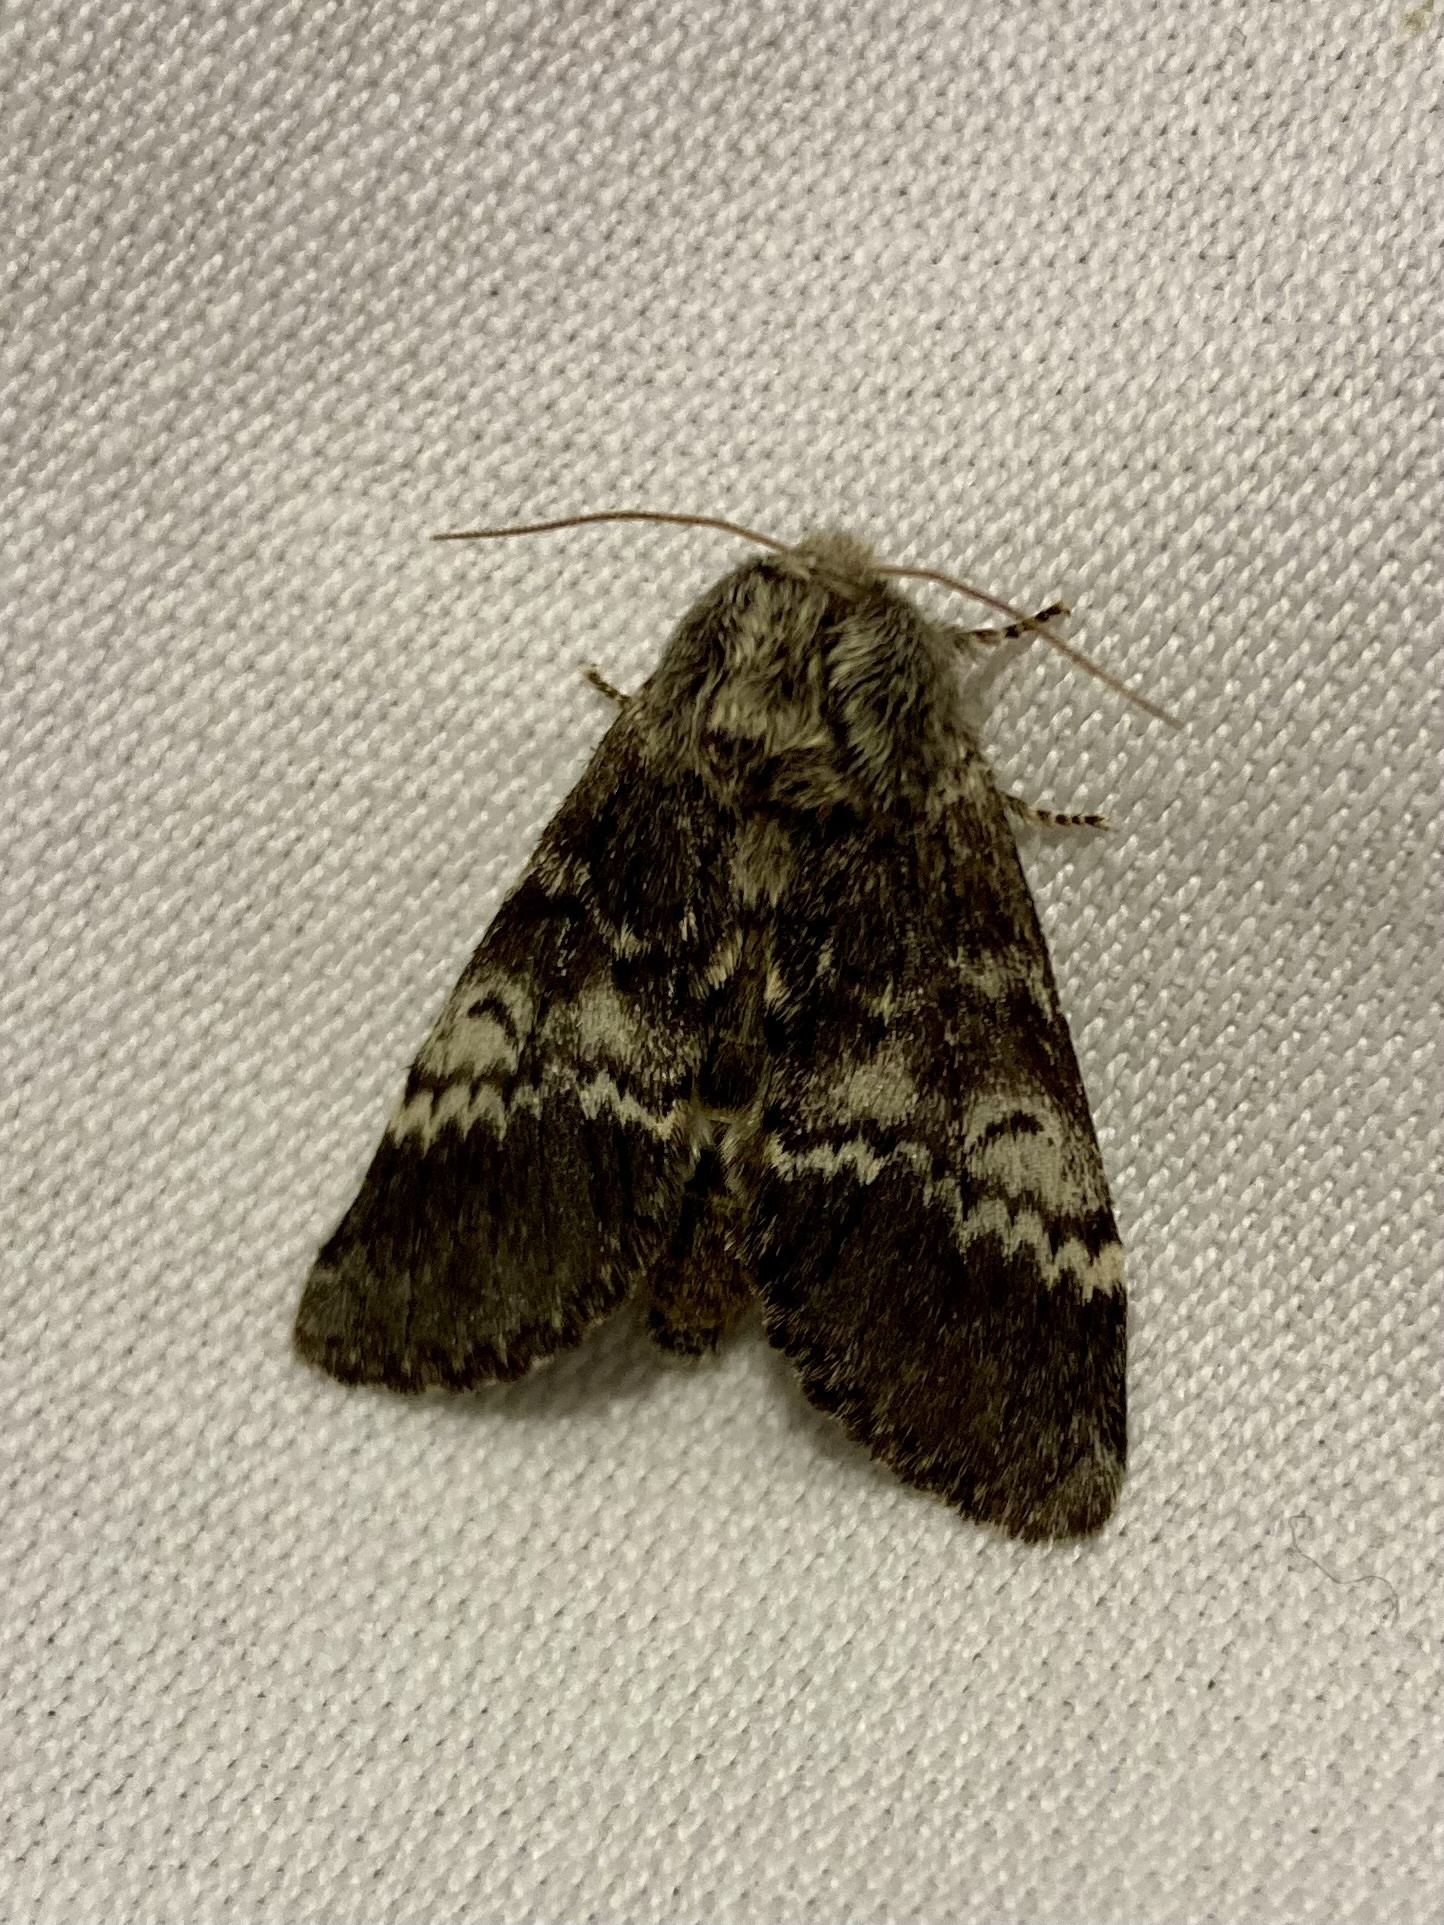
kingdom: Animalia
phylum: Arthropoda
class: Insecta
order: Lepidoptera
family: Notodontidae
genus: Drymonia
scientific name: Drymonia ruficornis
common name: Lunar marbled brown
